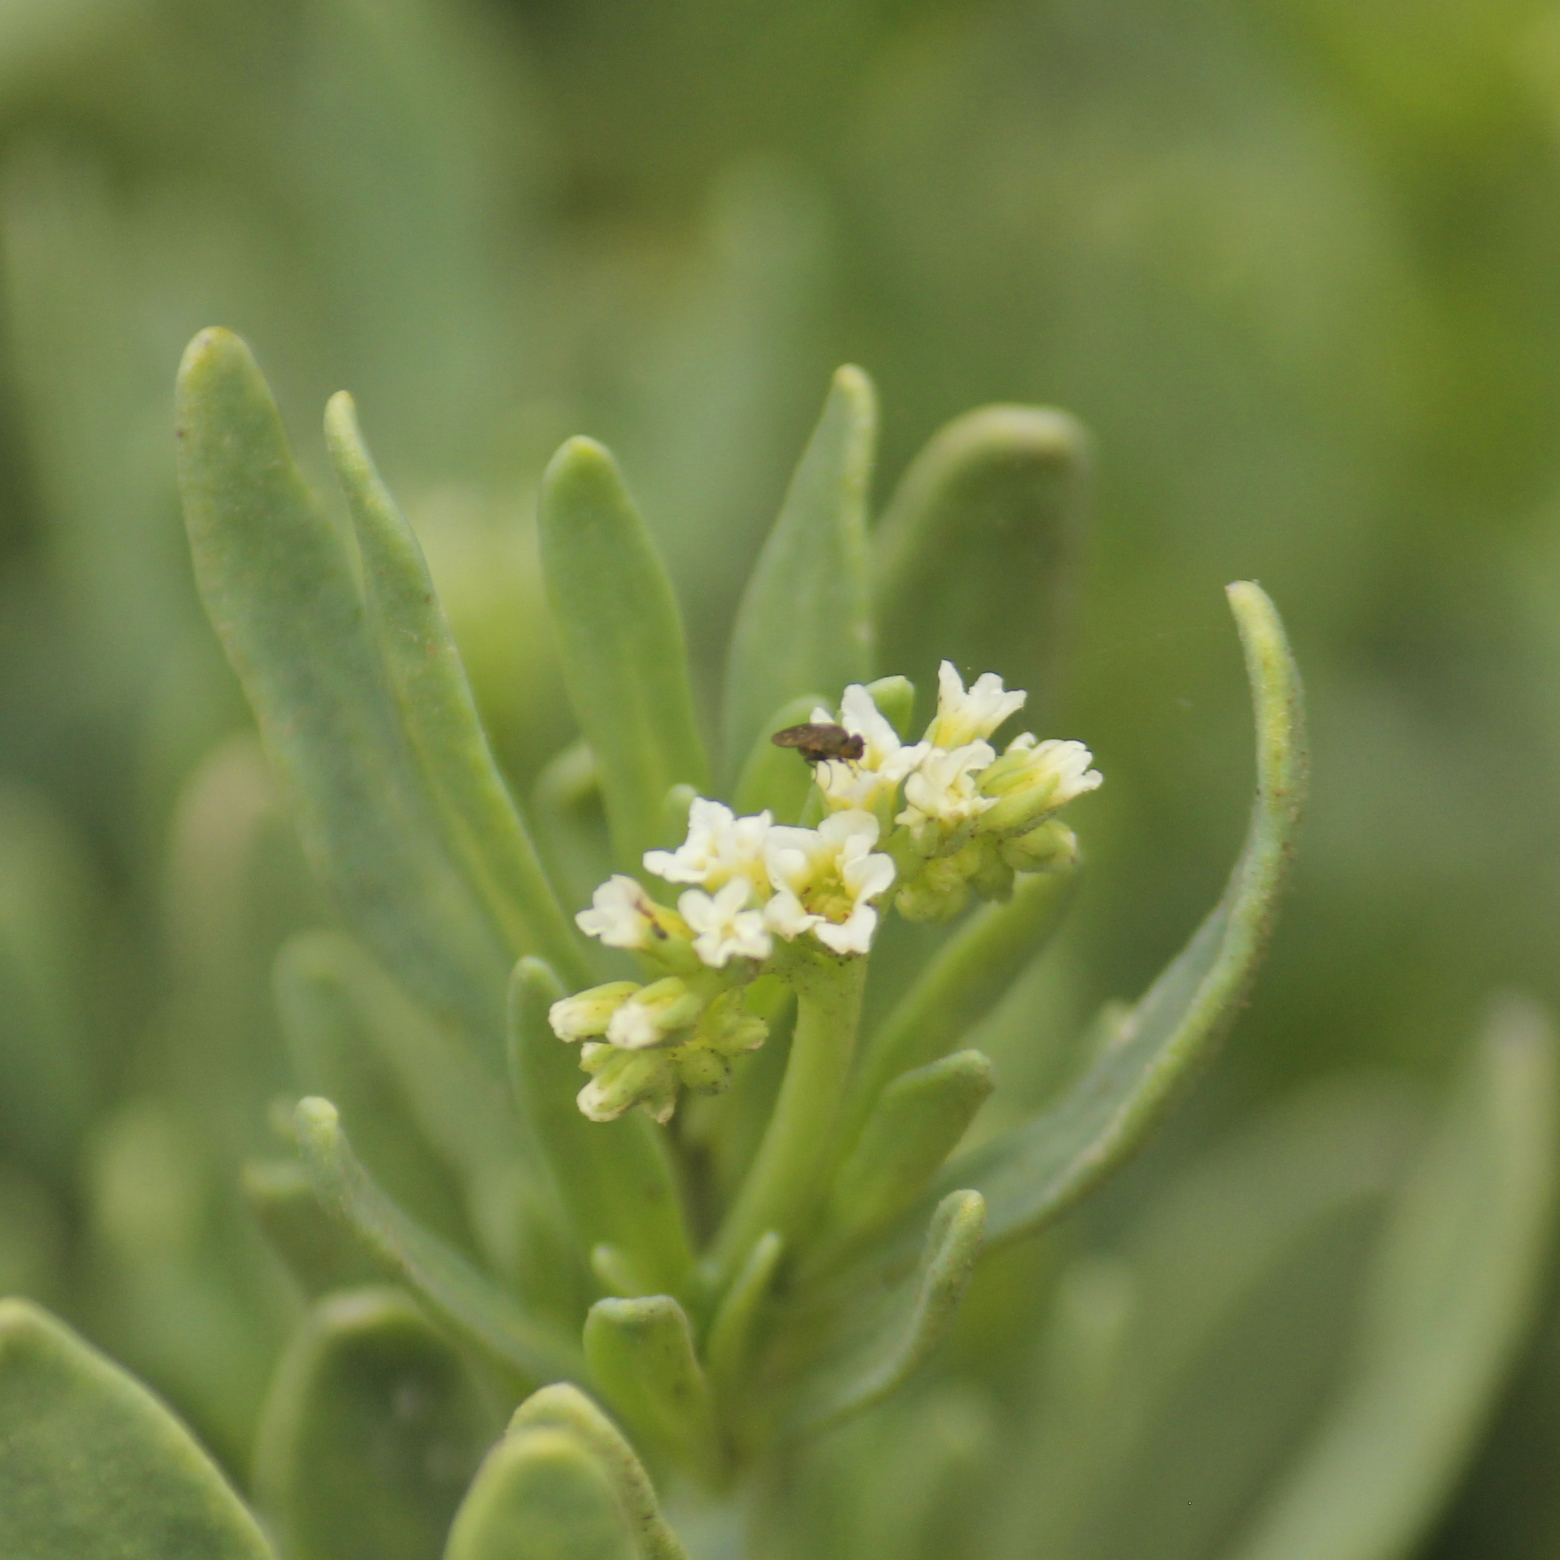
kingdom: Plantae
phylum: Tracheophyta
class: Magnoliopsida
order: Boraginales
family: Heliotropiaceae
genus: Heliotropium
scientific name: Heliotropium curassavicum
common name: Seaside heliotrope
